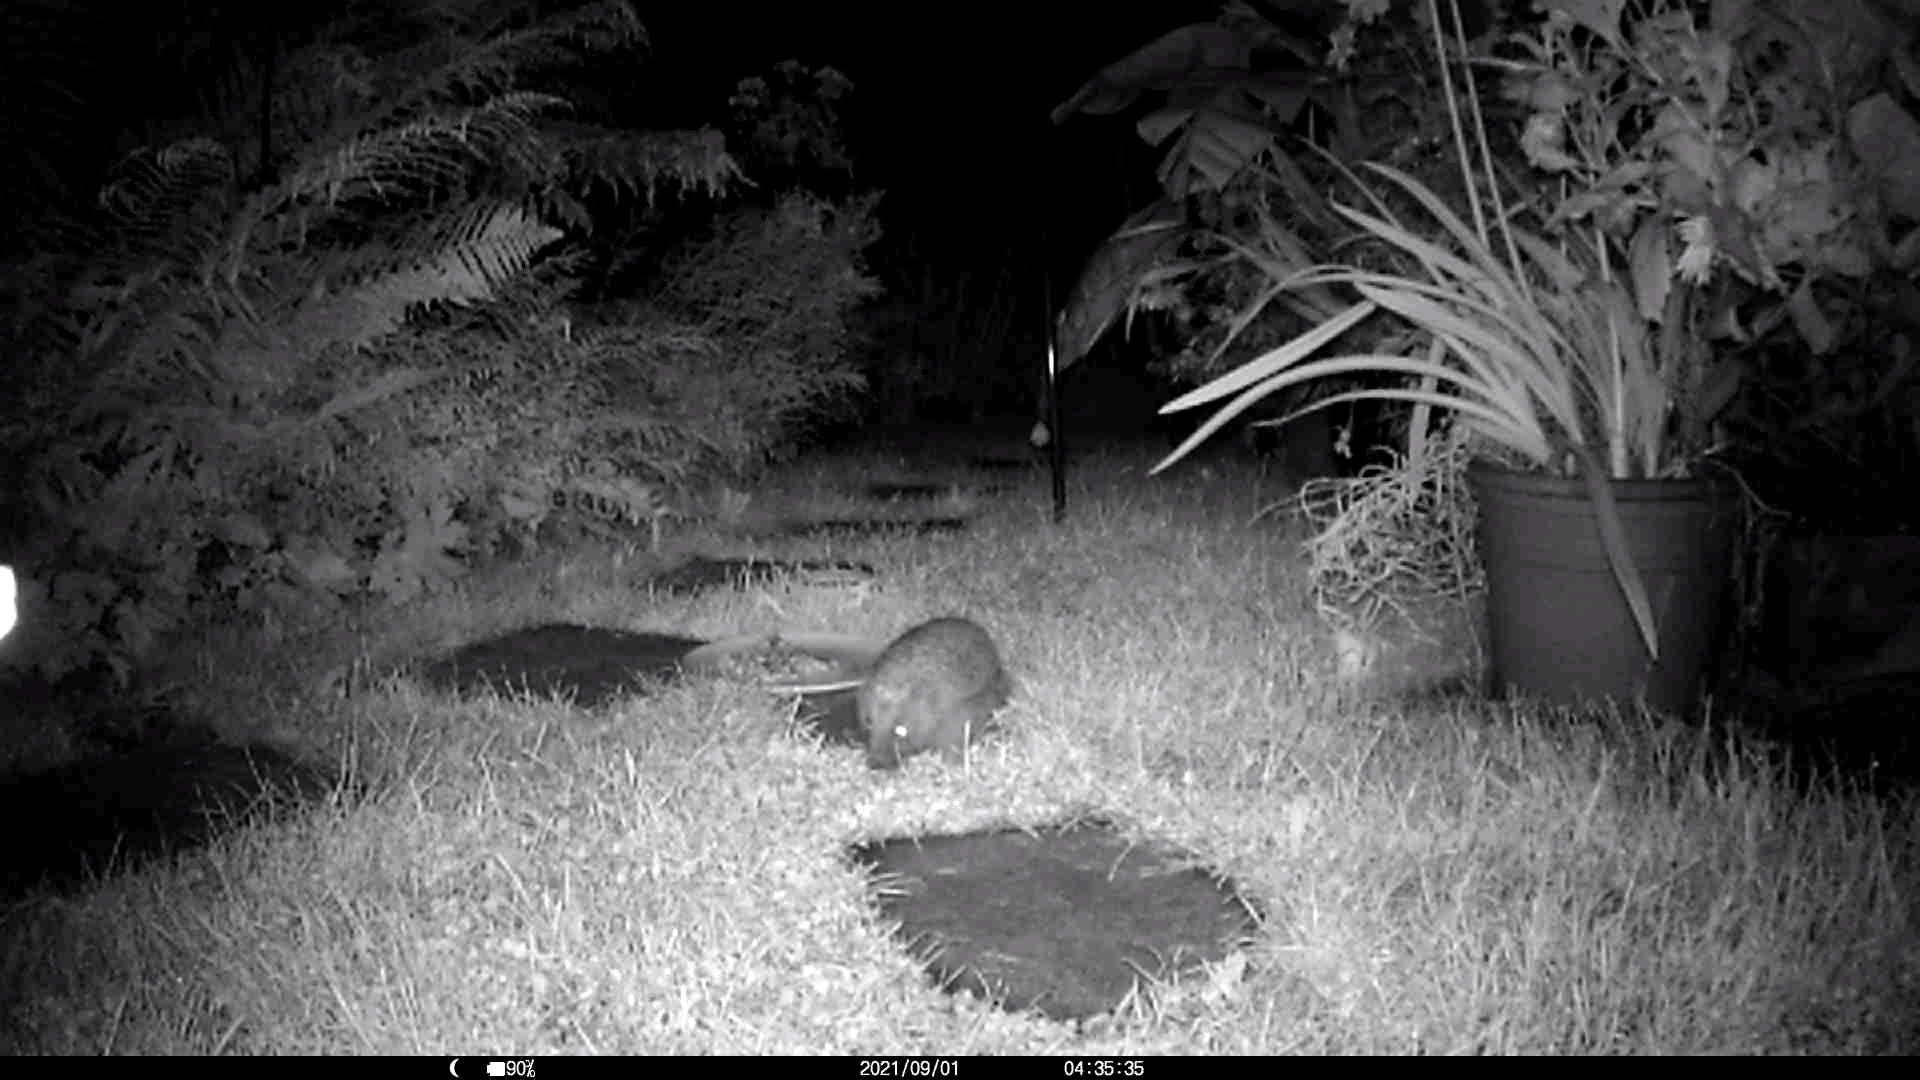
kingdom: Animalia
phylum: Chordata
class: Mammalia
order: Erinaceomorpha
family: Erinaceidae
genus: Erinaceus
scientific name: Erinaceus europaeus
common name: West european hedgehog
